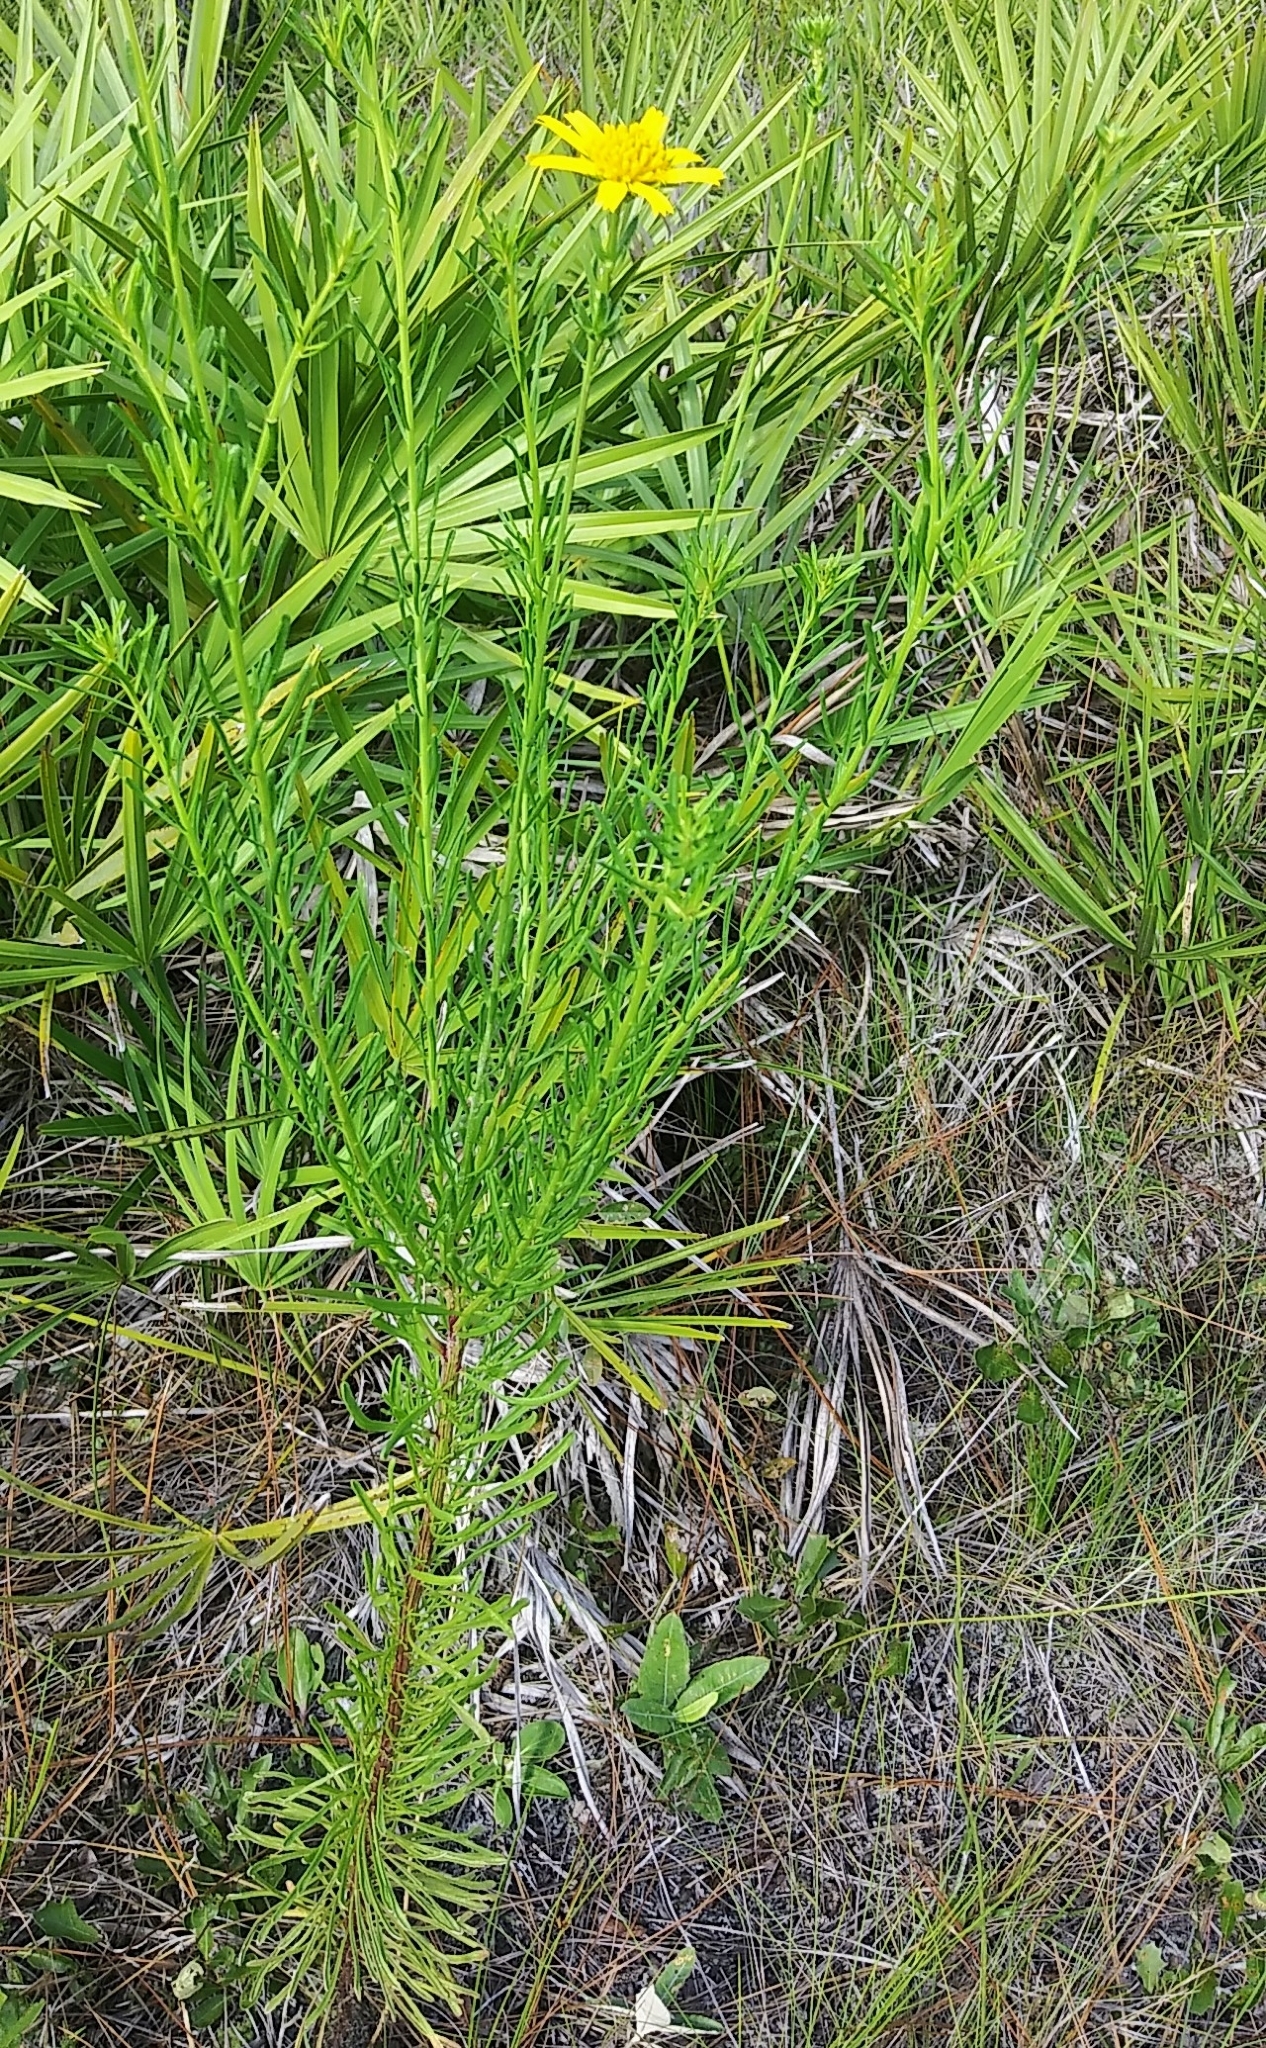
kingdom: Plantae
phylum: Tracheophyta
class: Magnoliopsida
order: Asterales
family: Asteraceae
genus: Balduina
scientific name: Balduina angustifolia
